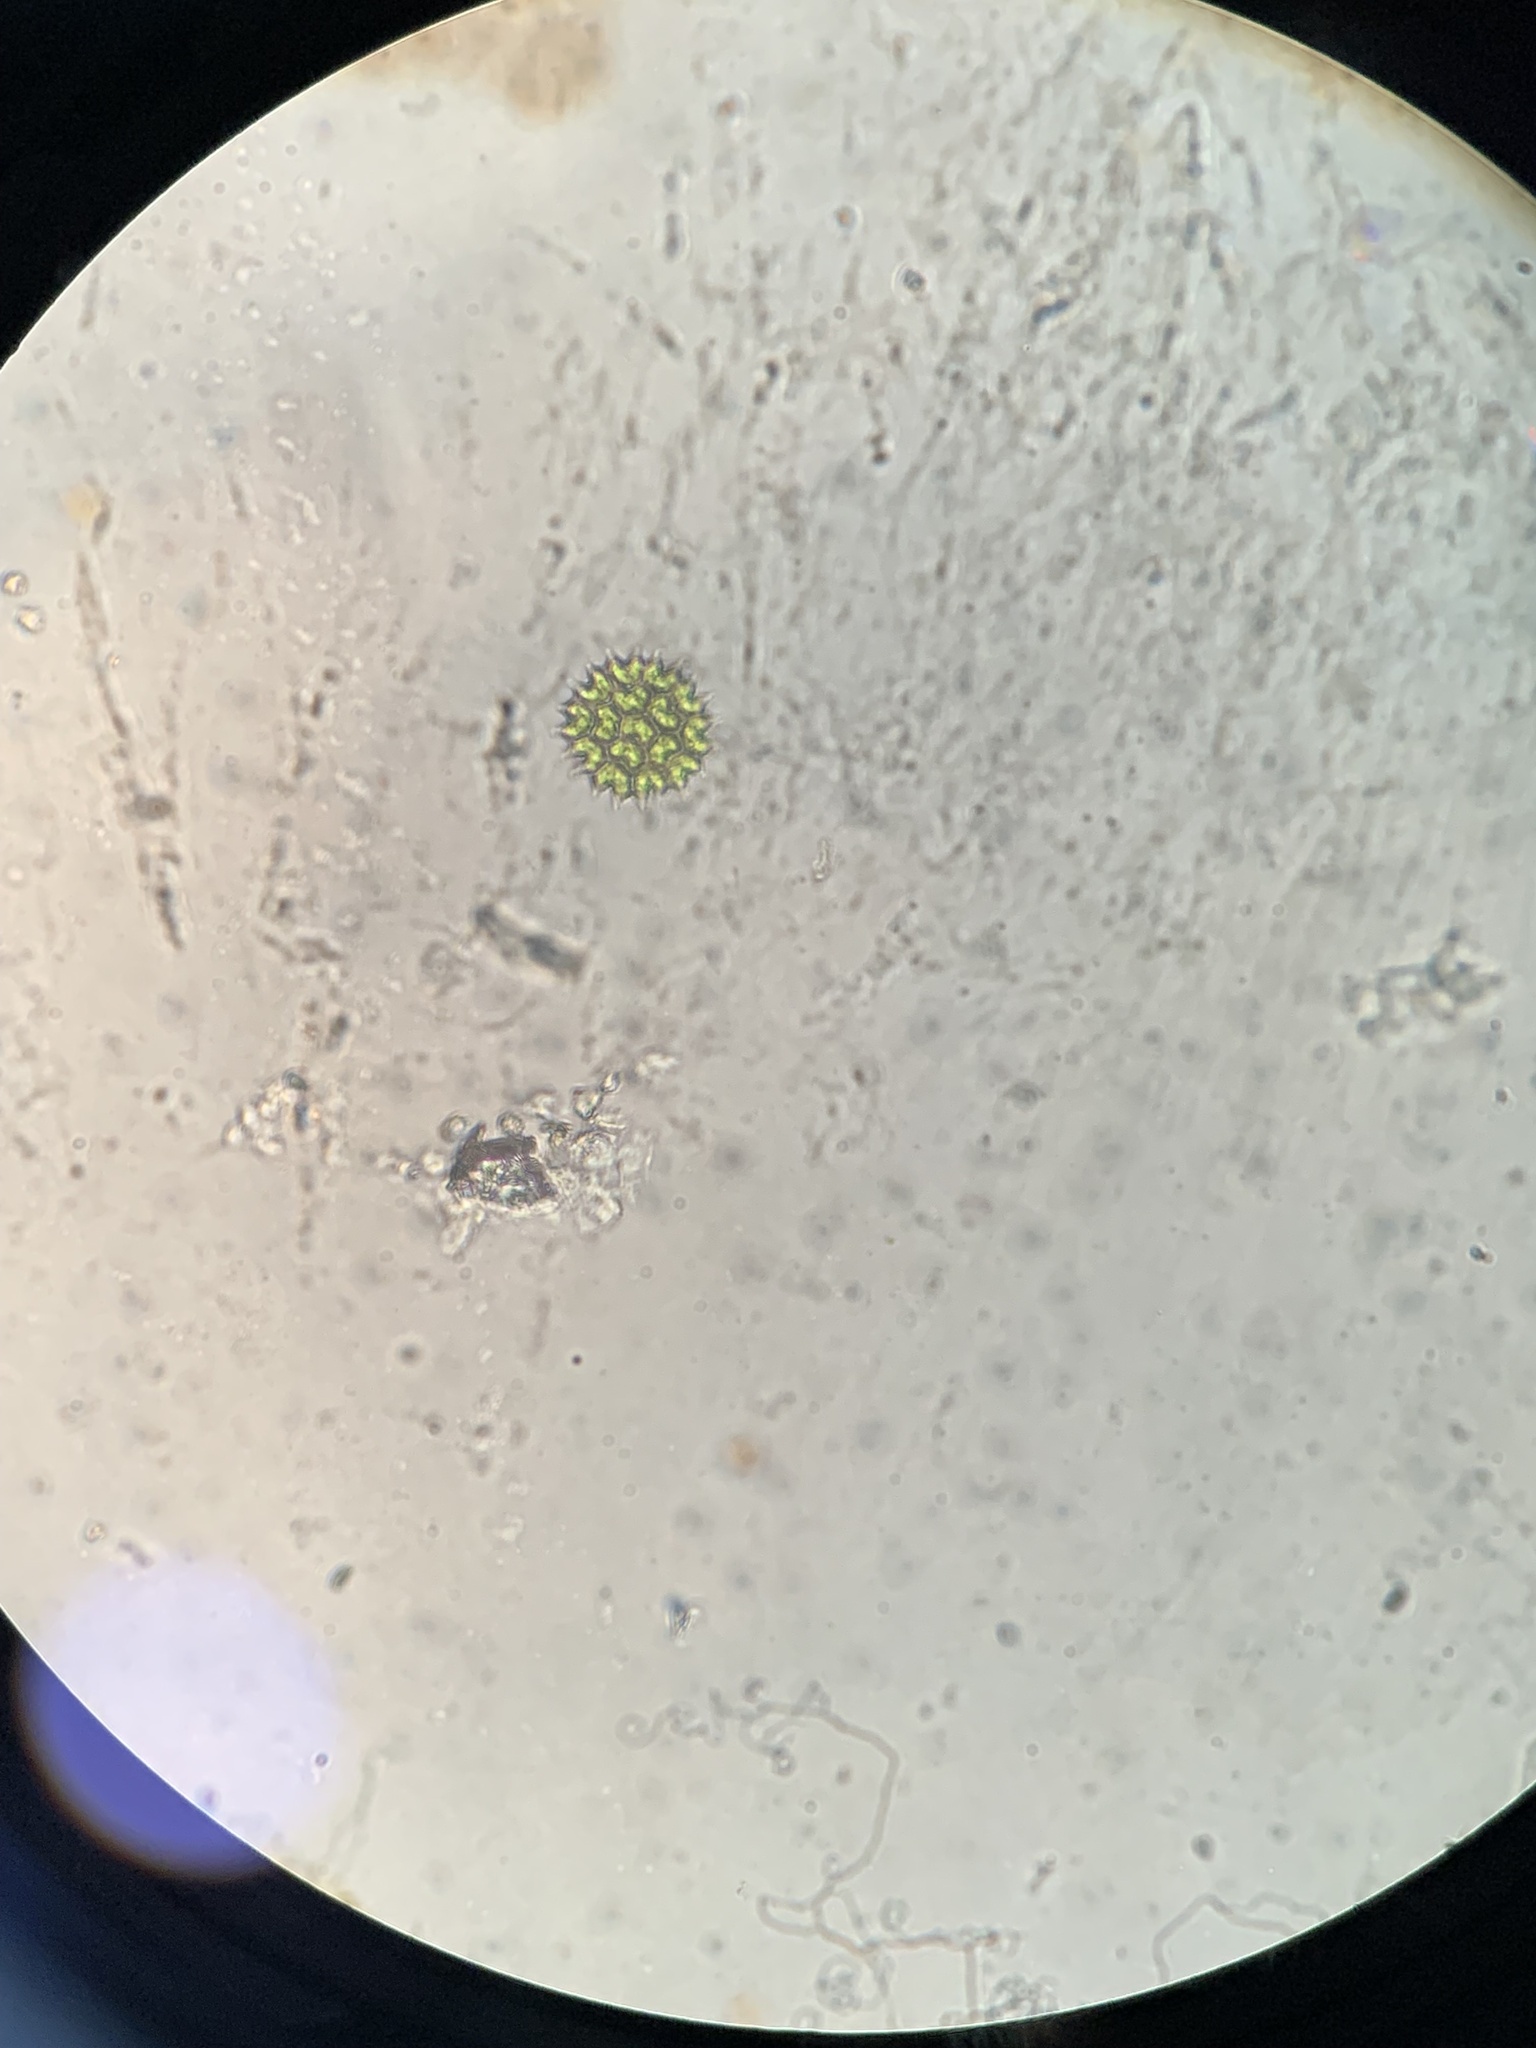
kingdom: Plantae
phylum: Chlorophyta
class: Chlorophyceae
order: Sphaeropleales
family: Hydrodictyaceae
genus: Pseudopediastrum
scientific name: Pseudopediastrum boryanum
